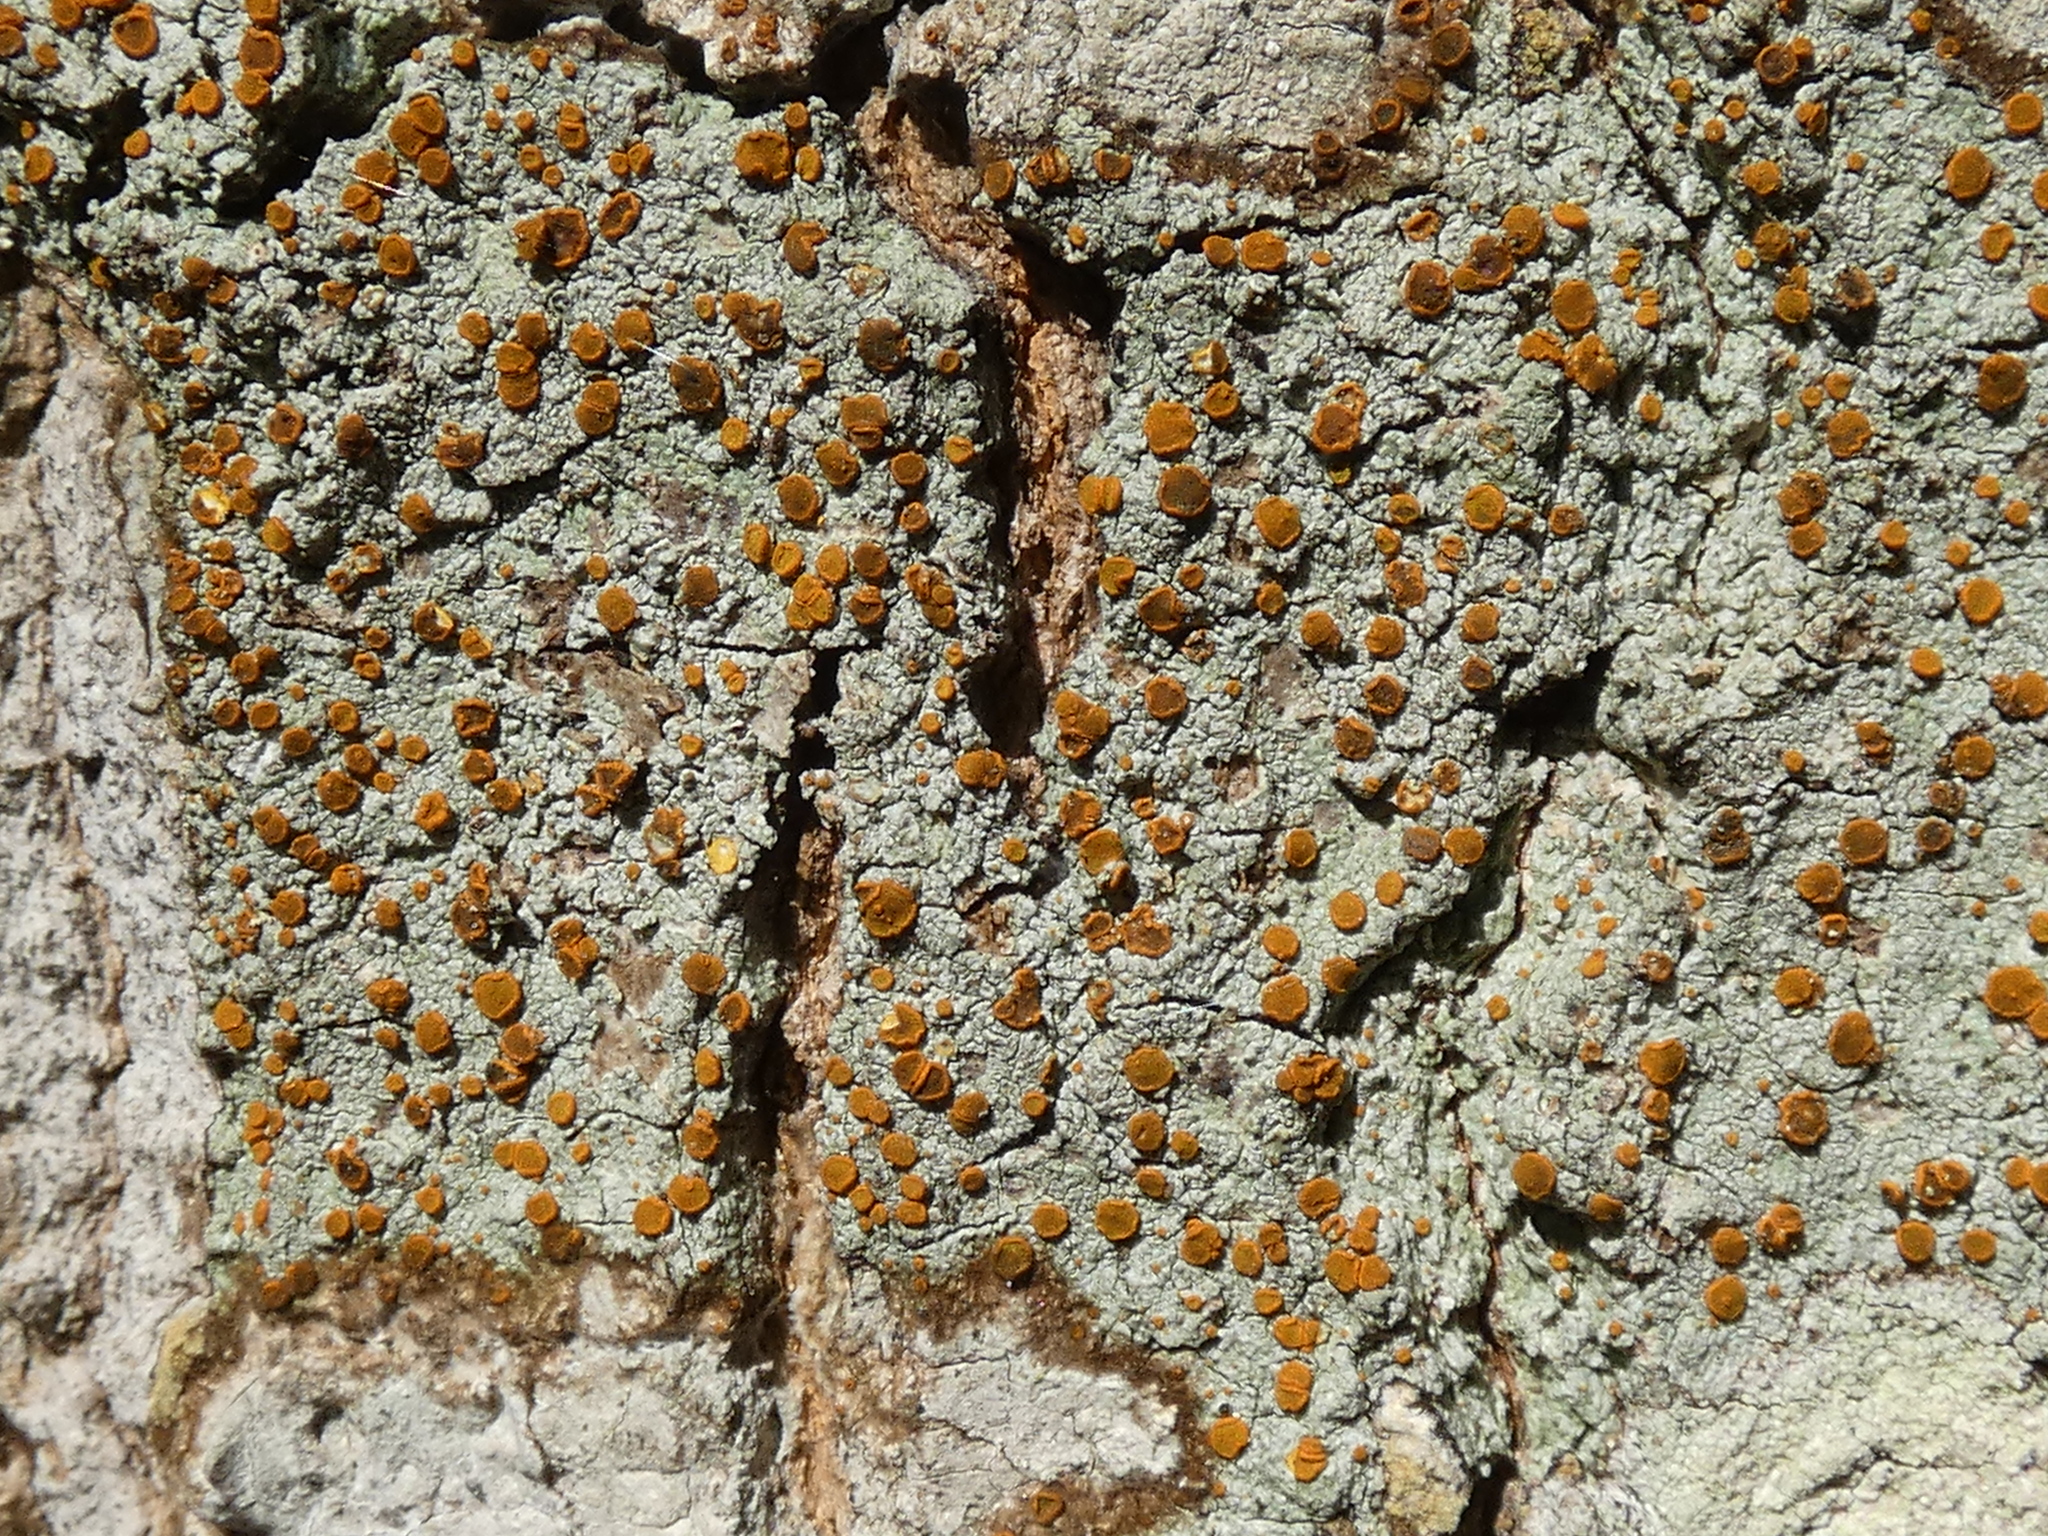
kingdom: Fungi
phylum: Ascomycota
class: Lecanoromycetes
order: Teloschistales
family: Brigantiaeaceae
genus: Brigantiaea
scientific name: Brigantiaea leucoxantha
